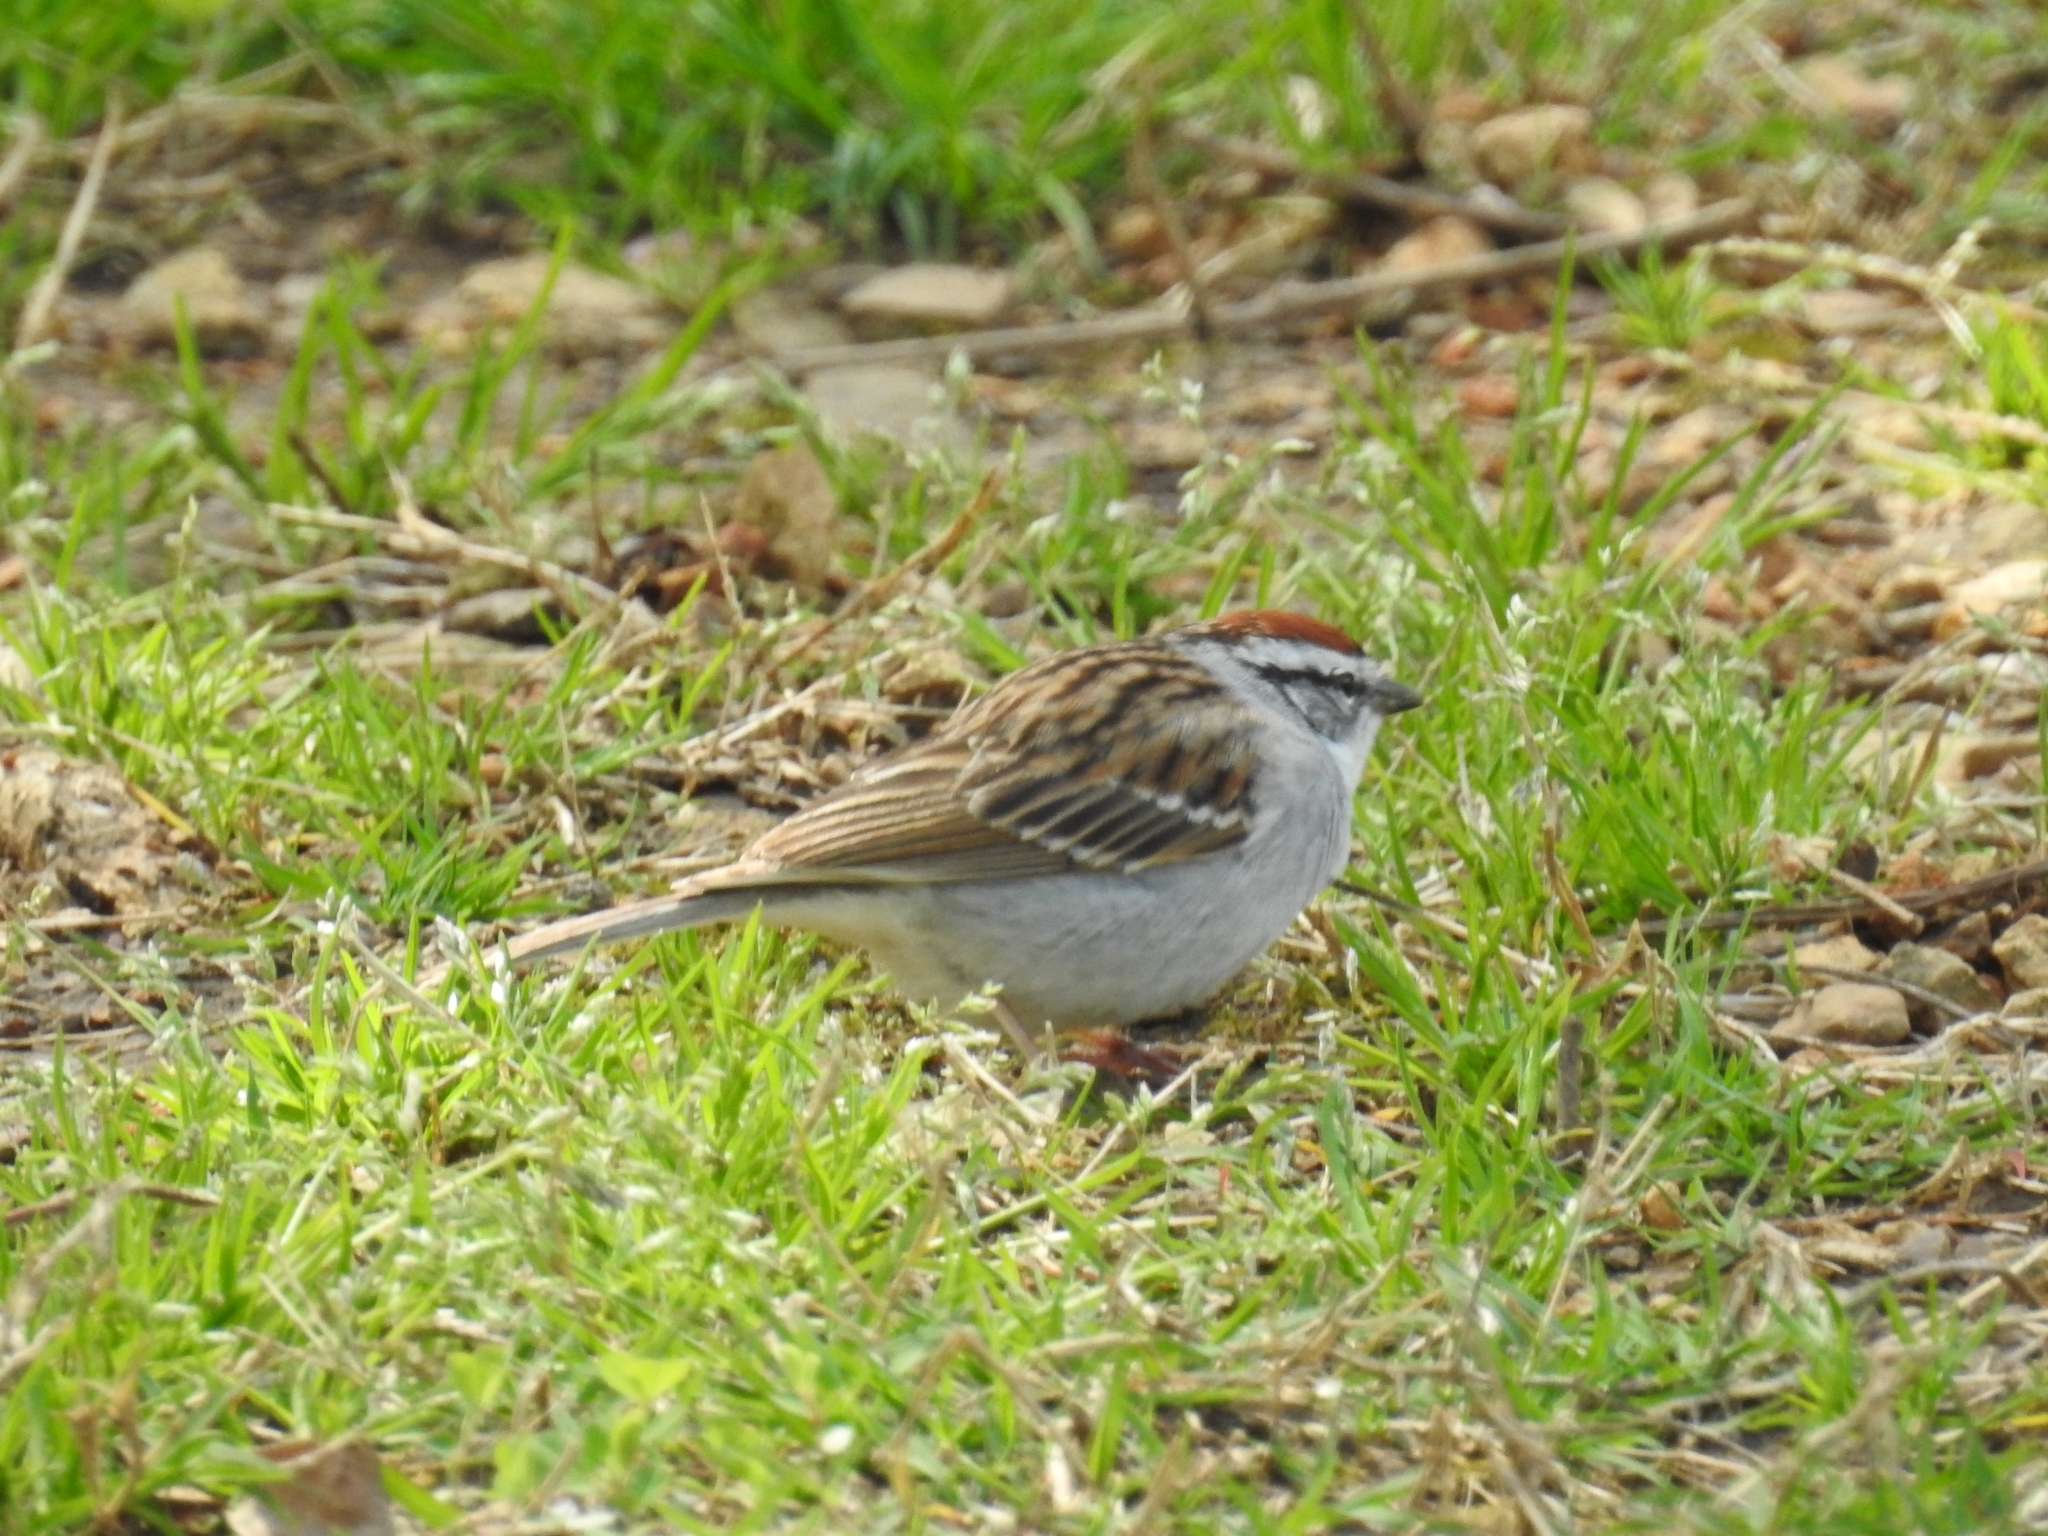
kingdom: Animalia
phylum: Chordata
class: Aves
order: Passeriformes
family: Passerellidae
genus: Spizella
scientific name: Spizella passerina
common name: Chipping sparrow
